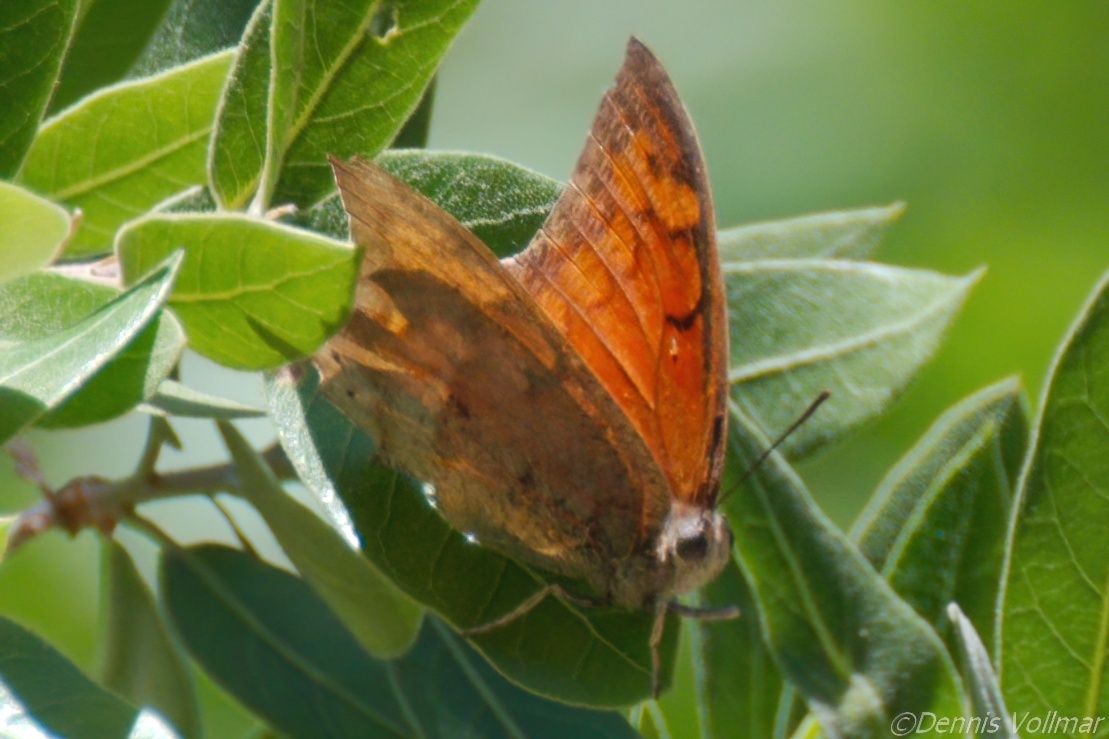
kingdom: Animalia
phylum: Arthropoda
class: Insecta
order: Lepidoptera
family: Nymphalidae
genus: Anaea
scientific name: Anaea aidea
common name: Tropical leafwing
